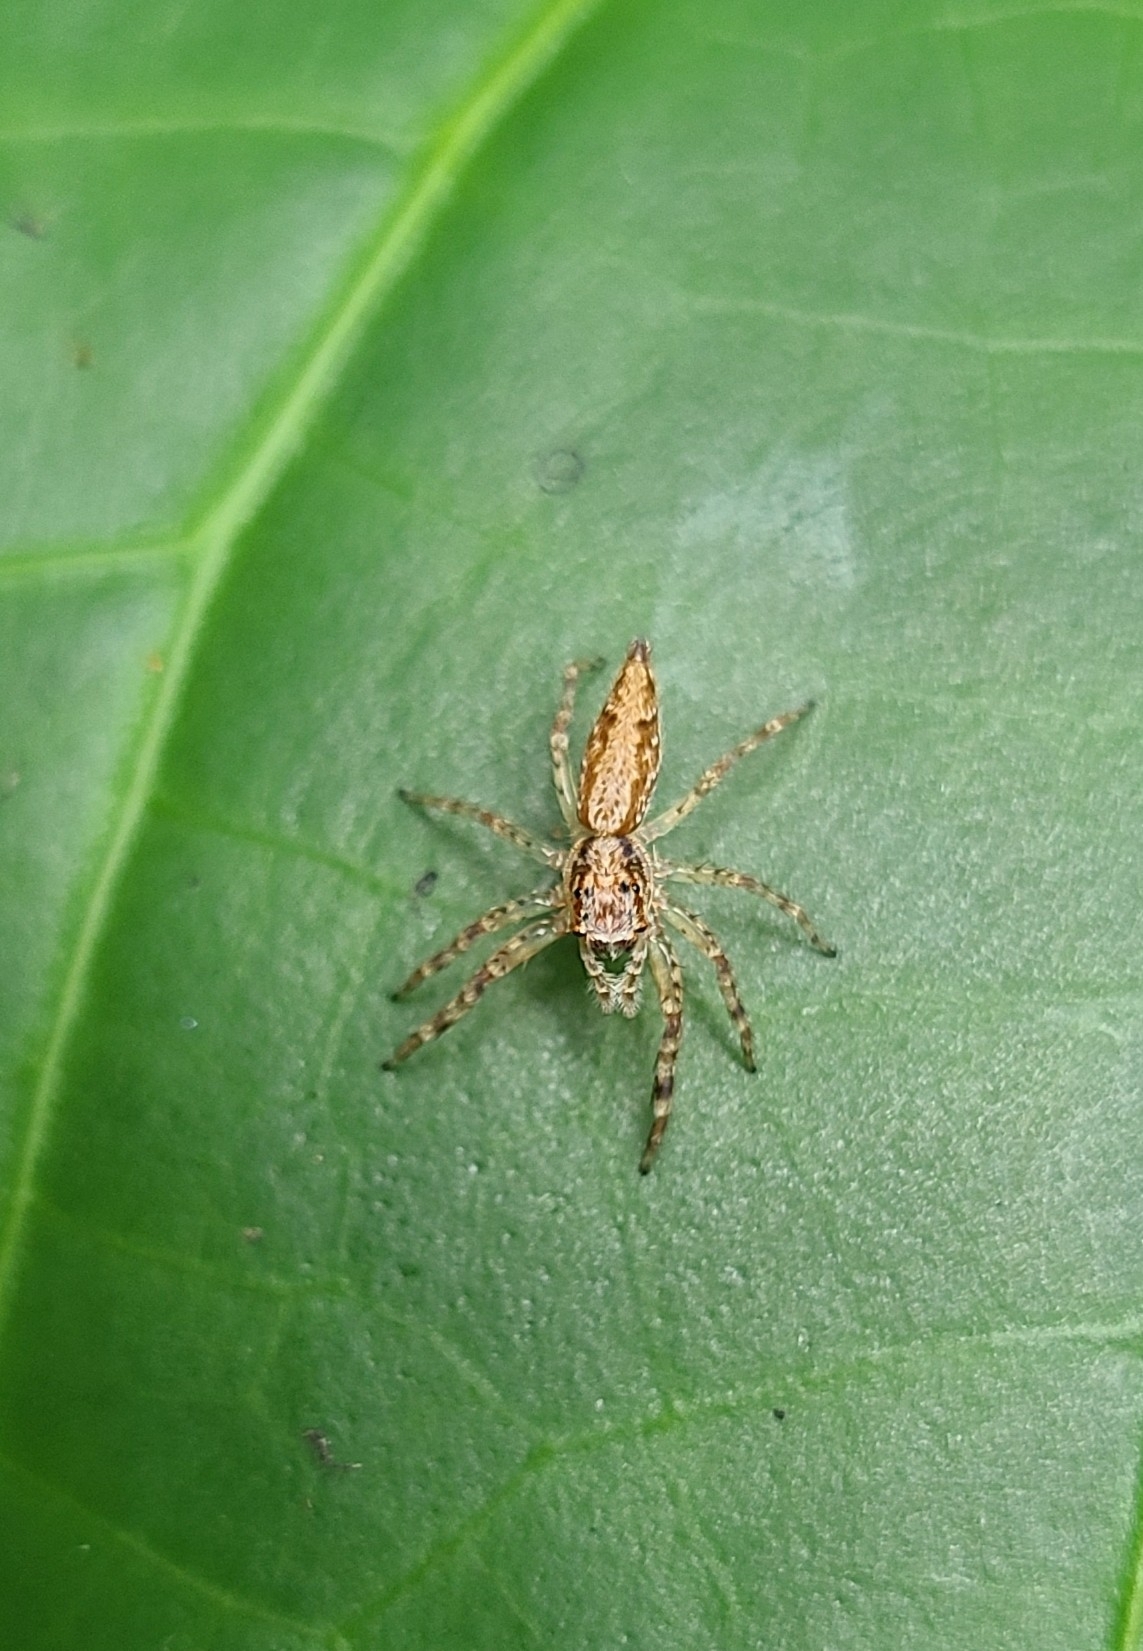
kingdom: Animalia
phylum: Arthropoda
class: Arachnida
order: Araneae
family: Salticidae
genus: Helpis
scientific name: Helpis minitabunda
